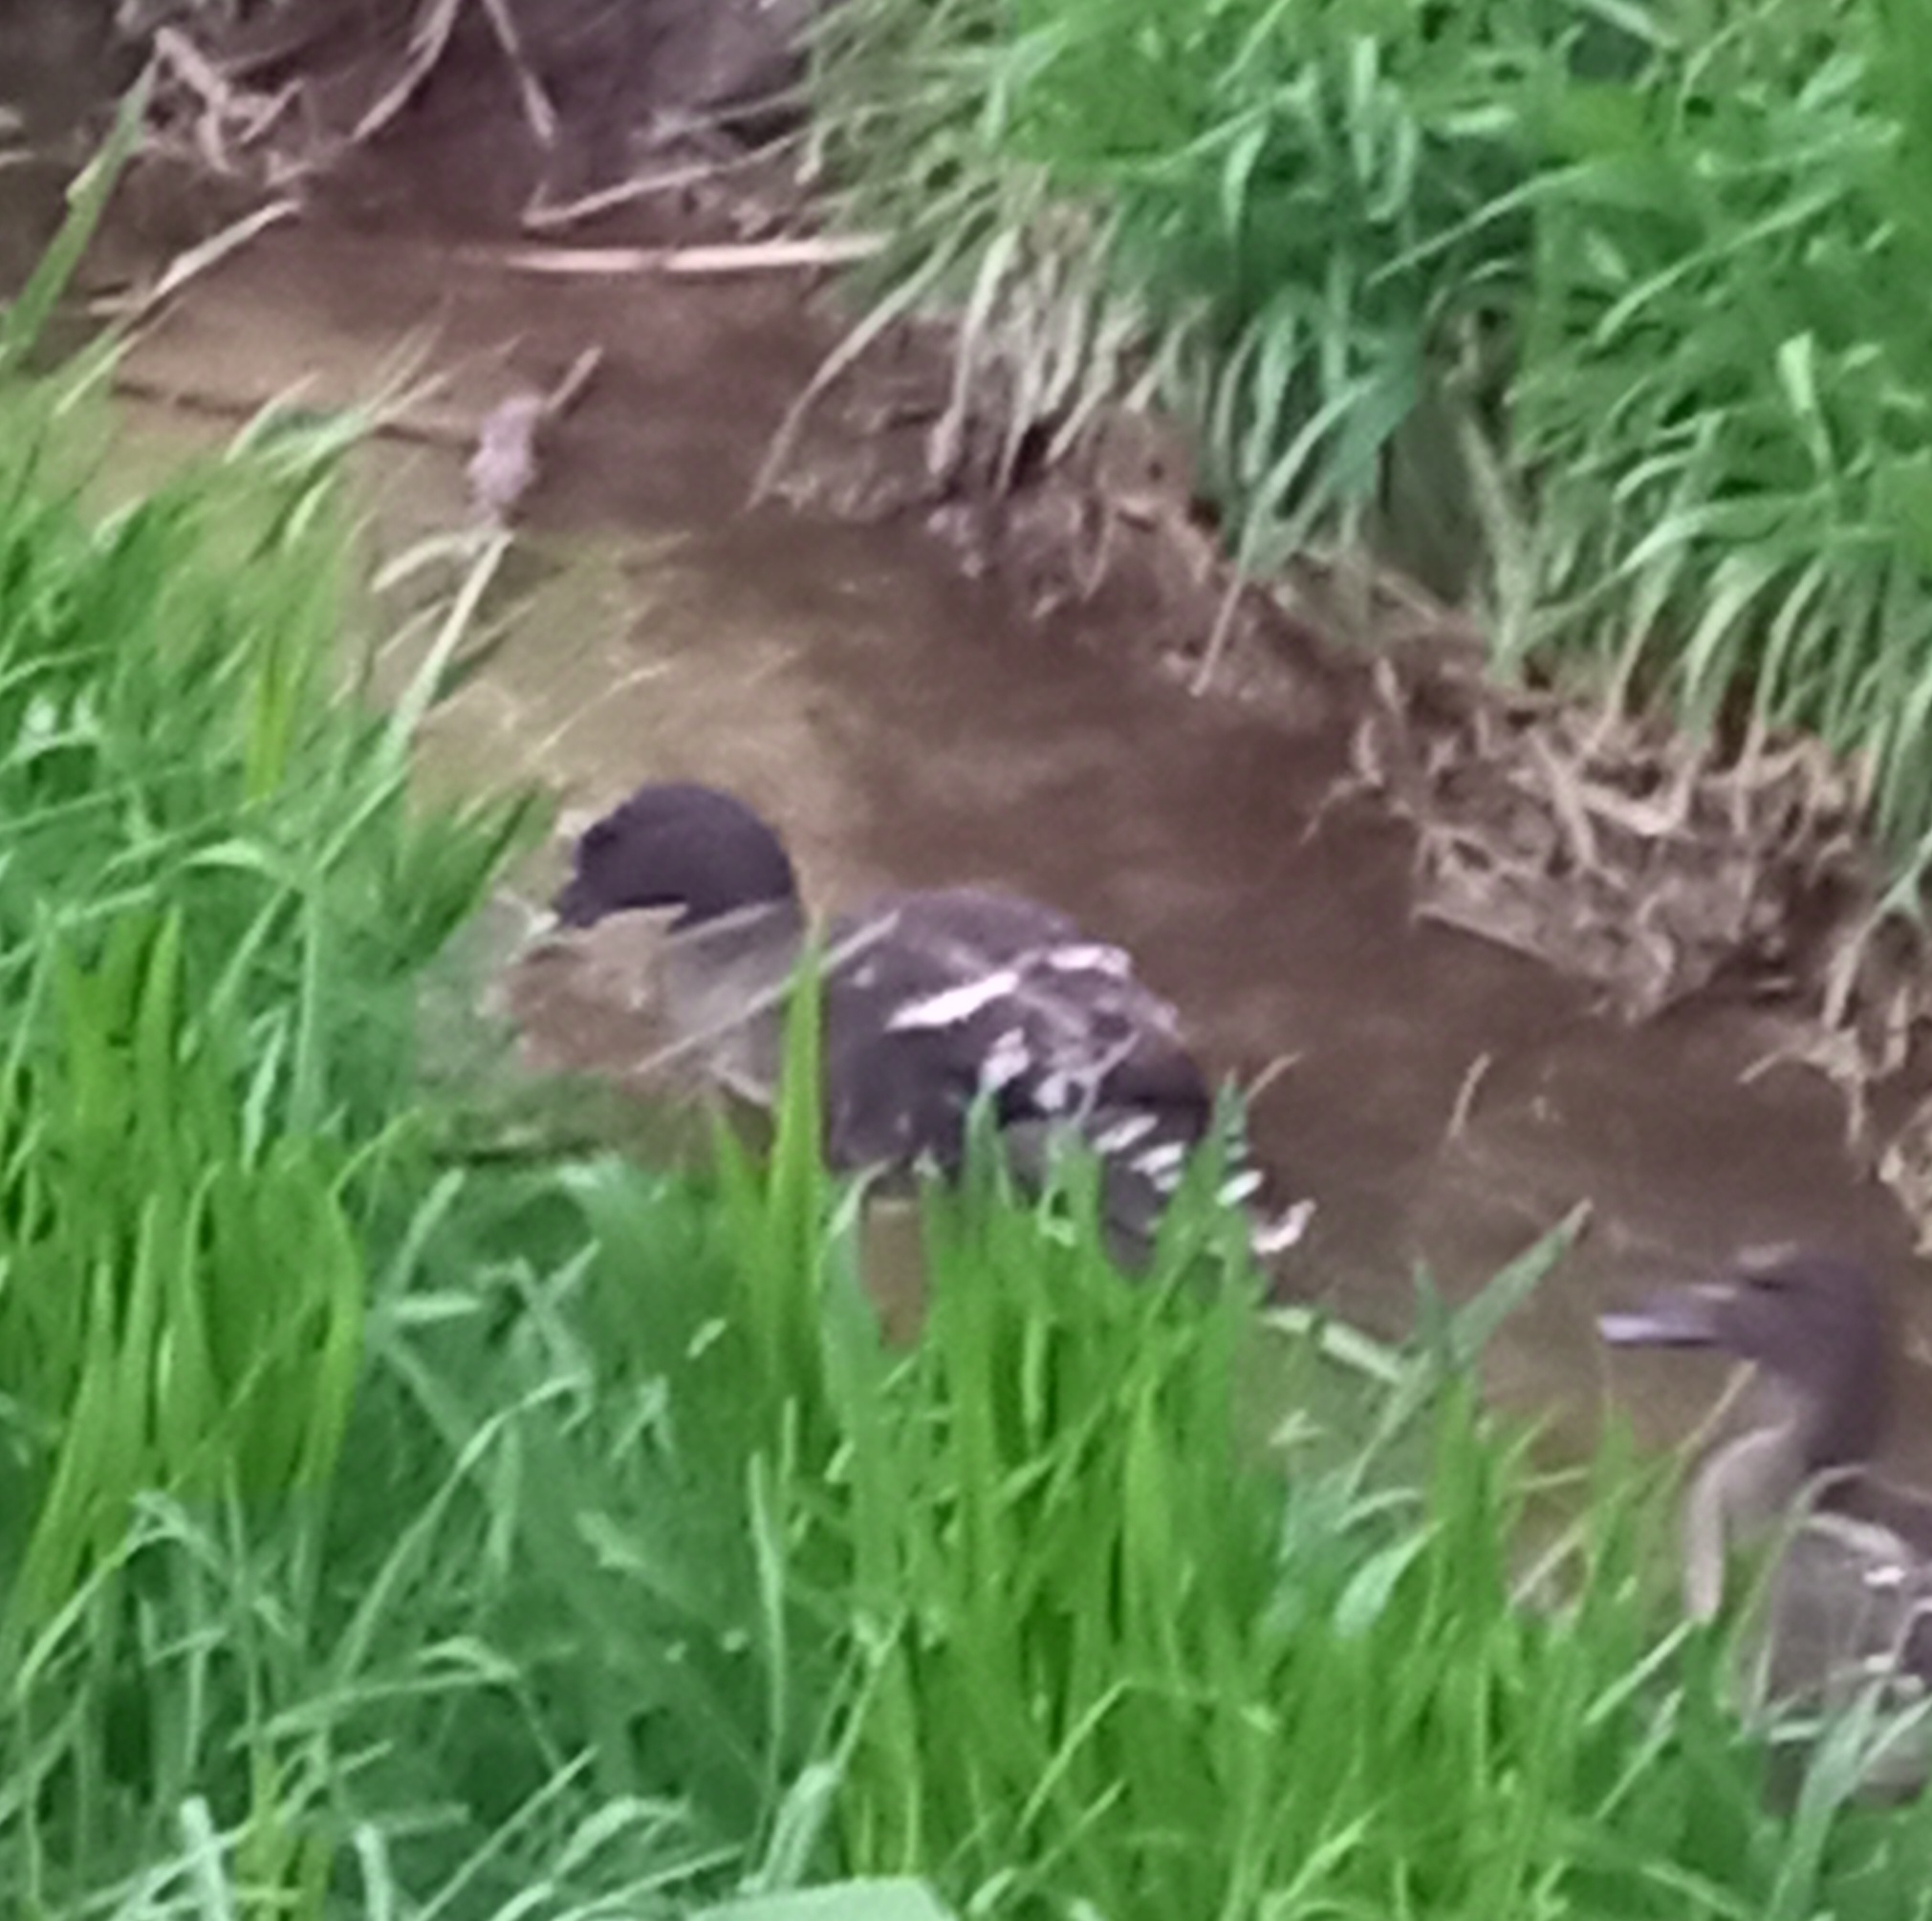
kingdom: Animalia
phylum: Chordata
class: Aves
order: Anseriformes
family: Anatidae
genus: Anas
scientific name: Anas sparsa
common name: African black duck
